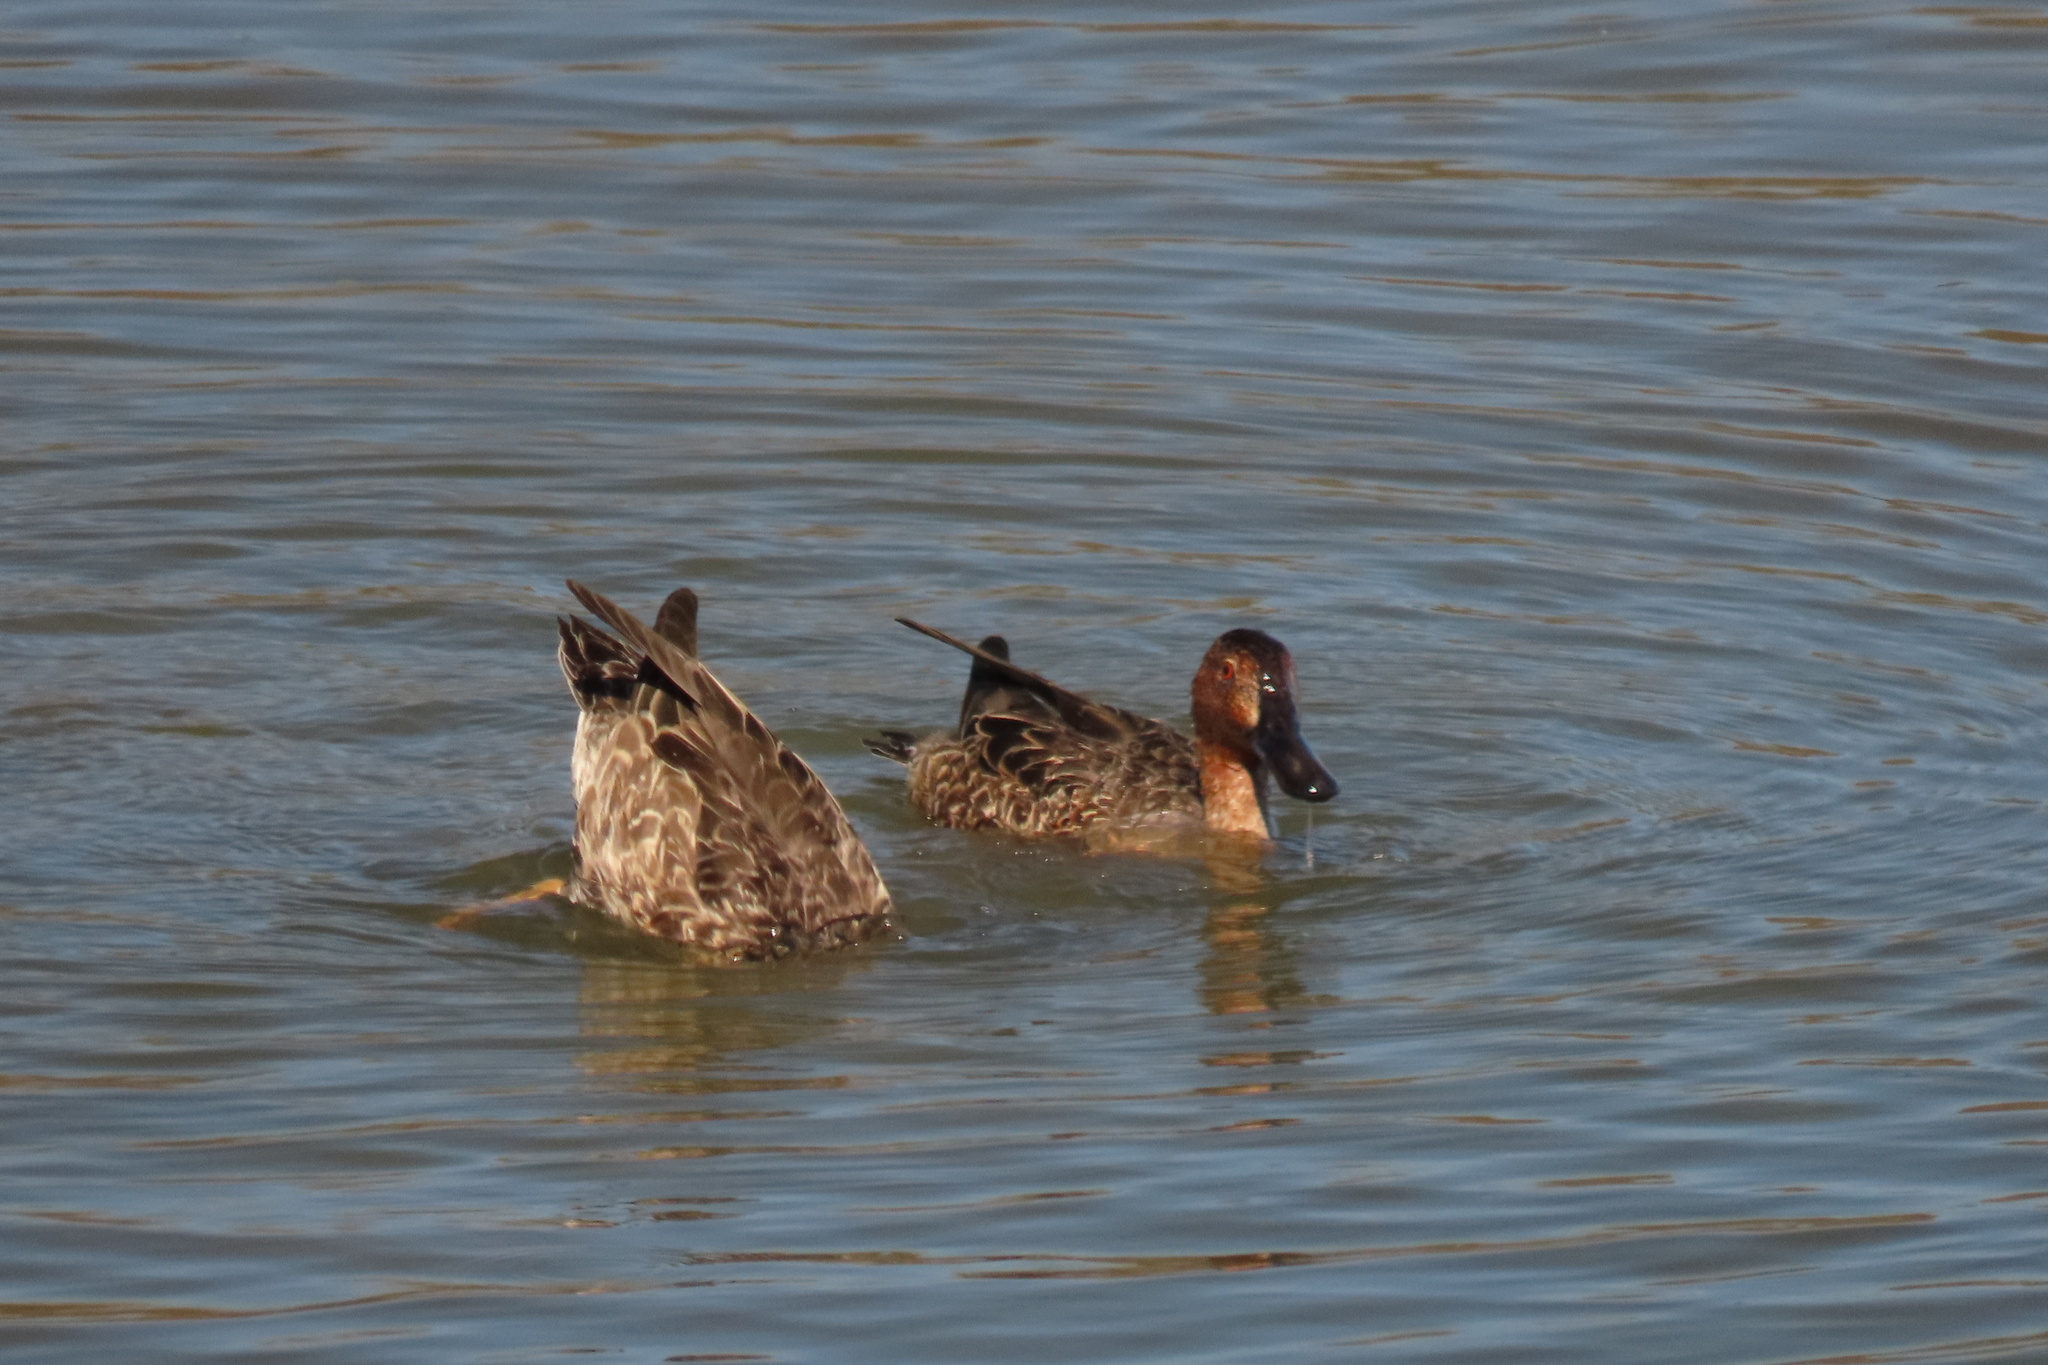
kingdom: Animalia
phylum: Chordata
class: Aves
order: Anseriformes
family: Anatidae
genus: Spatula
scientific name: Spatula clypeata
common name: Northern shoveler
